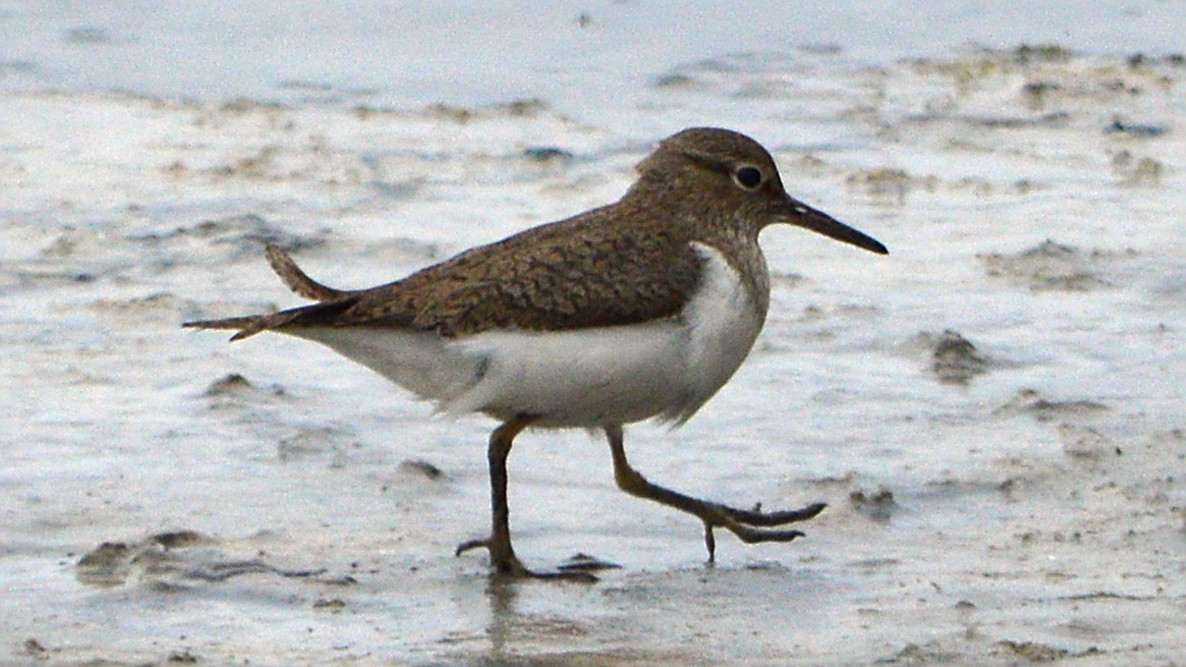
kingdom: Animalia
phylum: Chordata
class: Aves
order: Charadriiformes
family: Scolopacidae
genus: Actitis
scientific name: Actitis hypoleucos
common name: Common sandpiper
